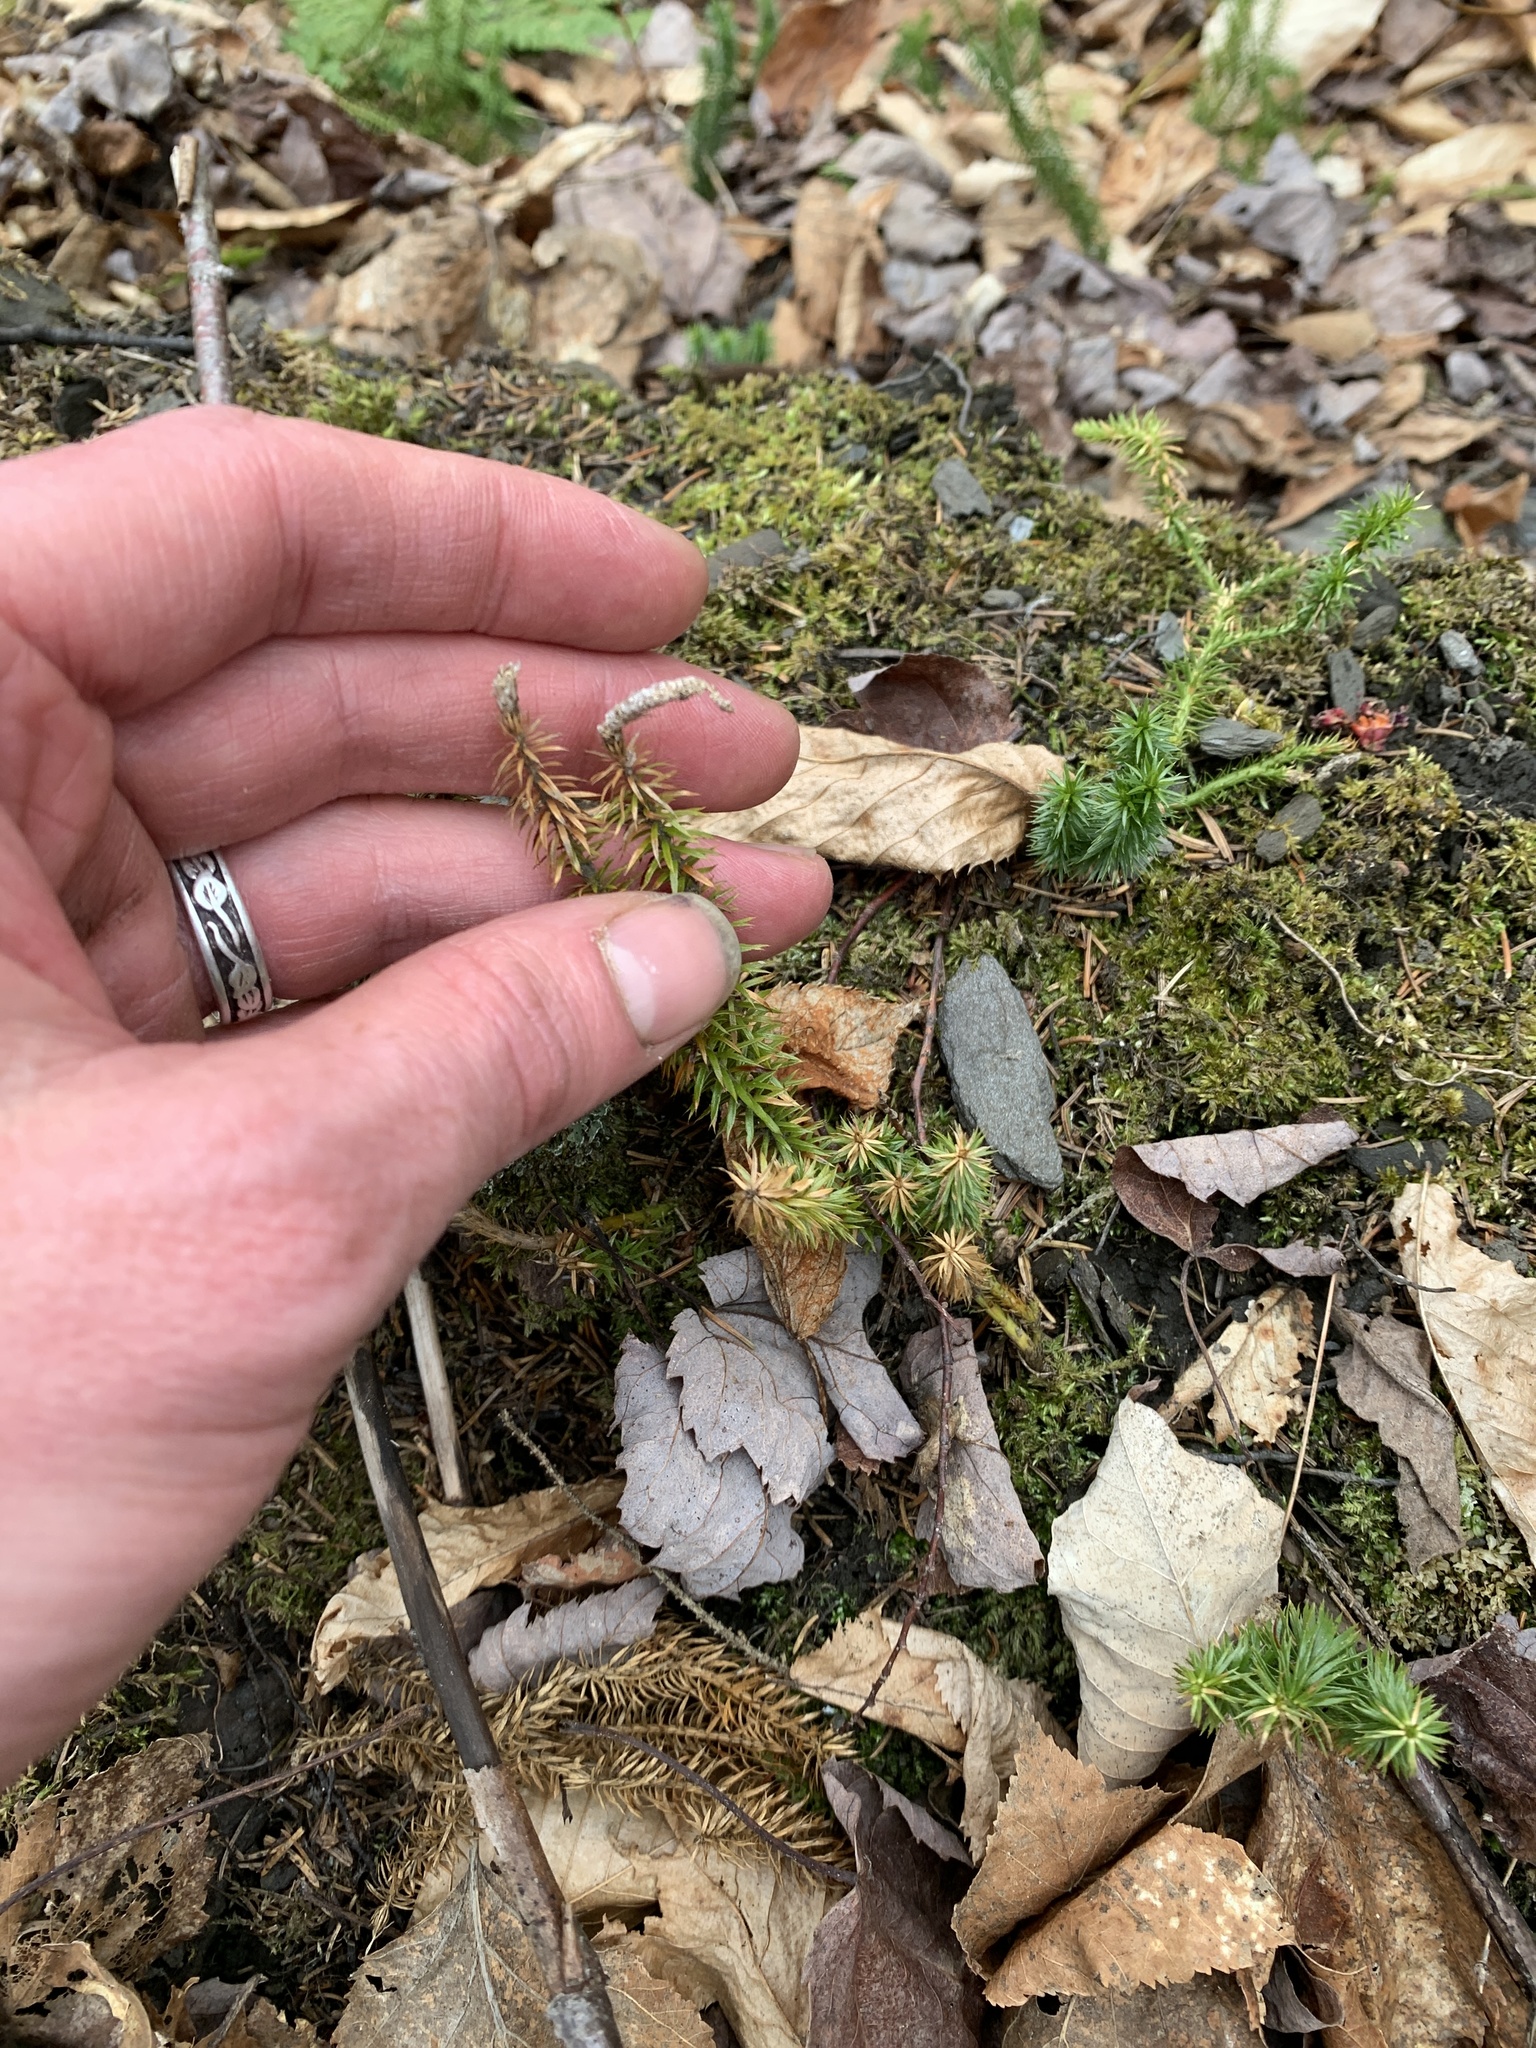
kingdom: Plantae
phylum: Tracheophyta
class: Lycopodiopsida
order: Lycopodiales
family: Lycopodiaceae
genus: Spinulum
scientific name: Spinulum annotinum
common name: Interrupted club-moss
